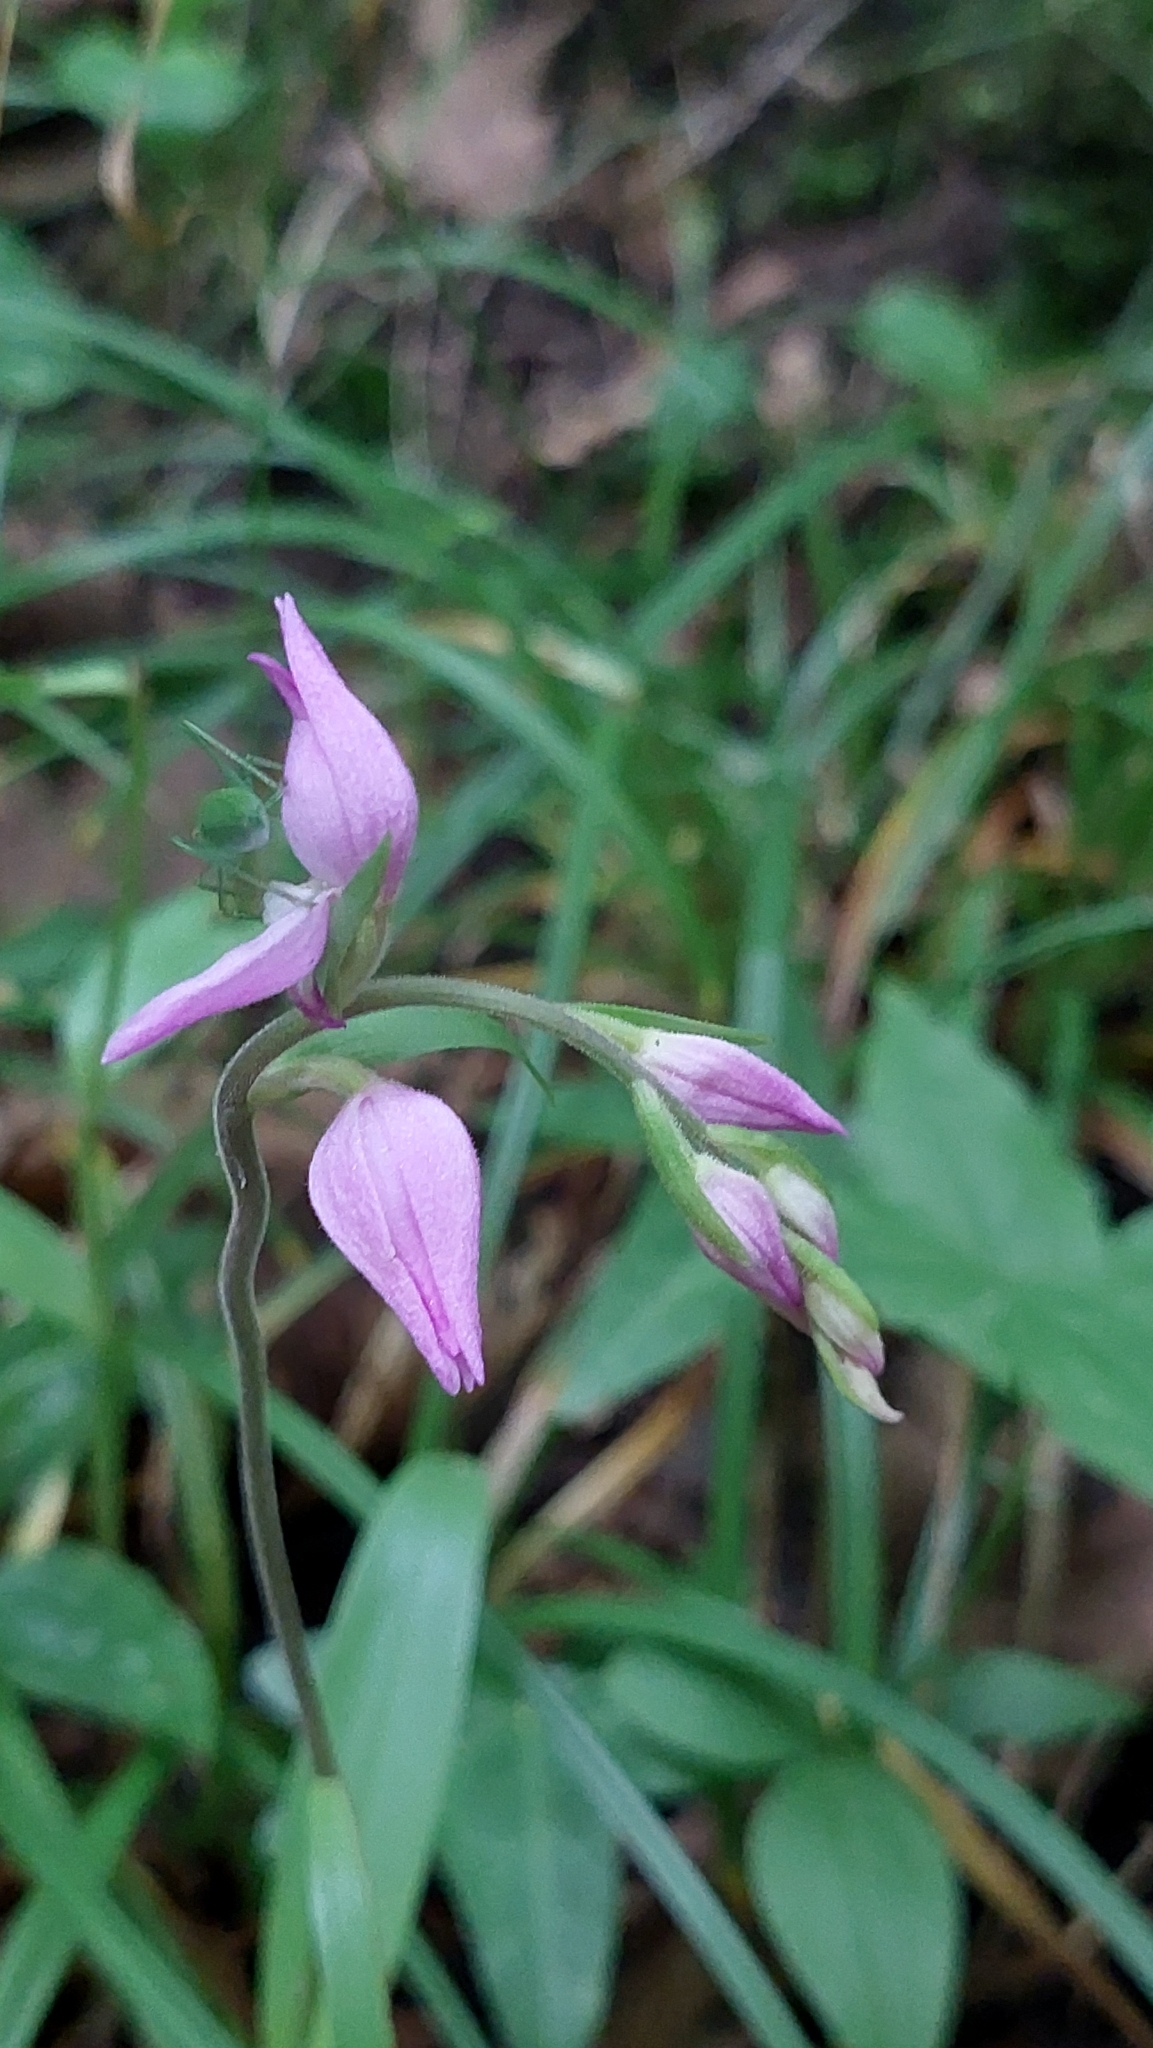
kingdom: Plantae
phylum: Tracheophyta
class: Liliopsida
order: Asparagales
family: Orchidaceae
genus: Cephalanthera
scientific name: Cephalanthera rubra
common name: Red helleborine
